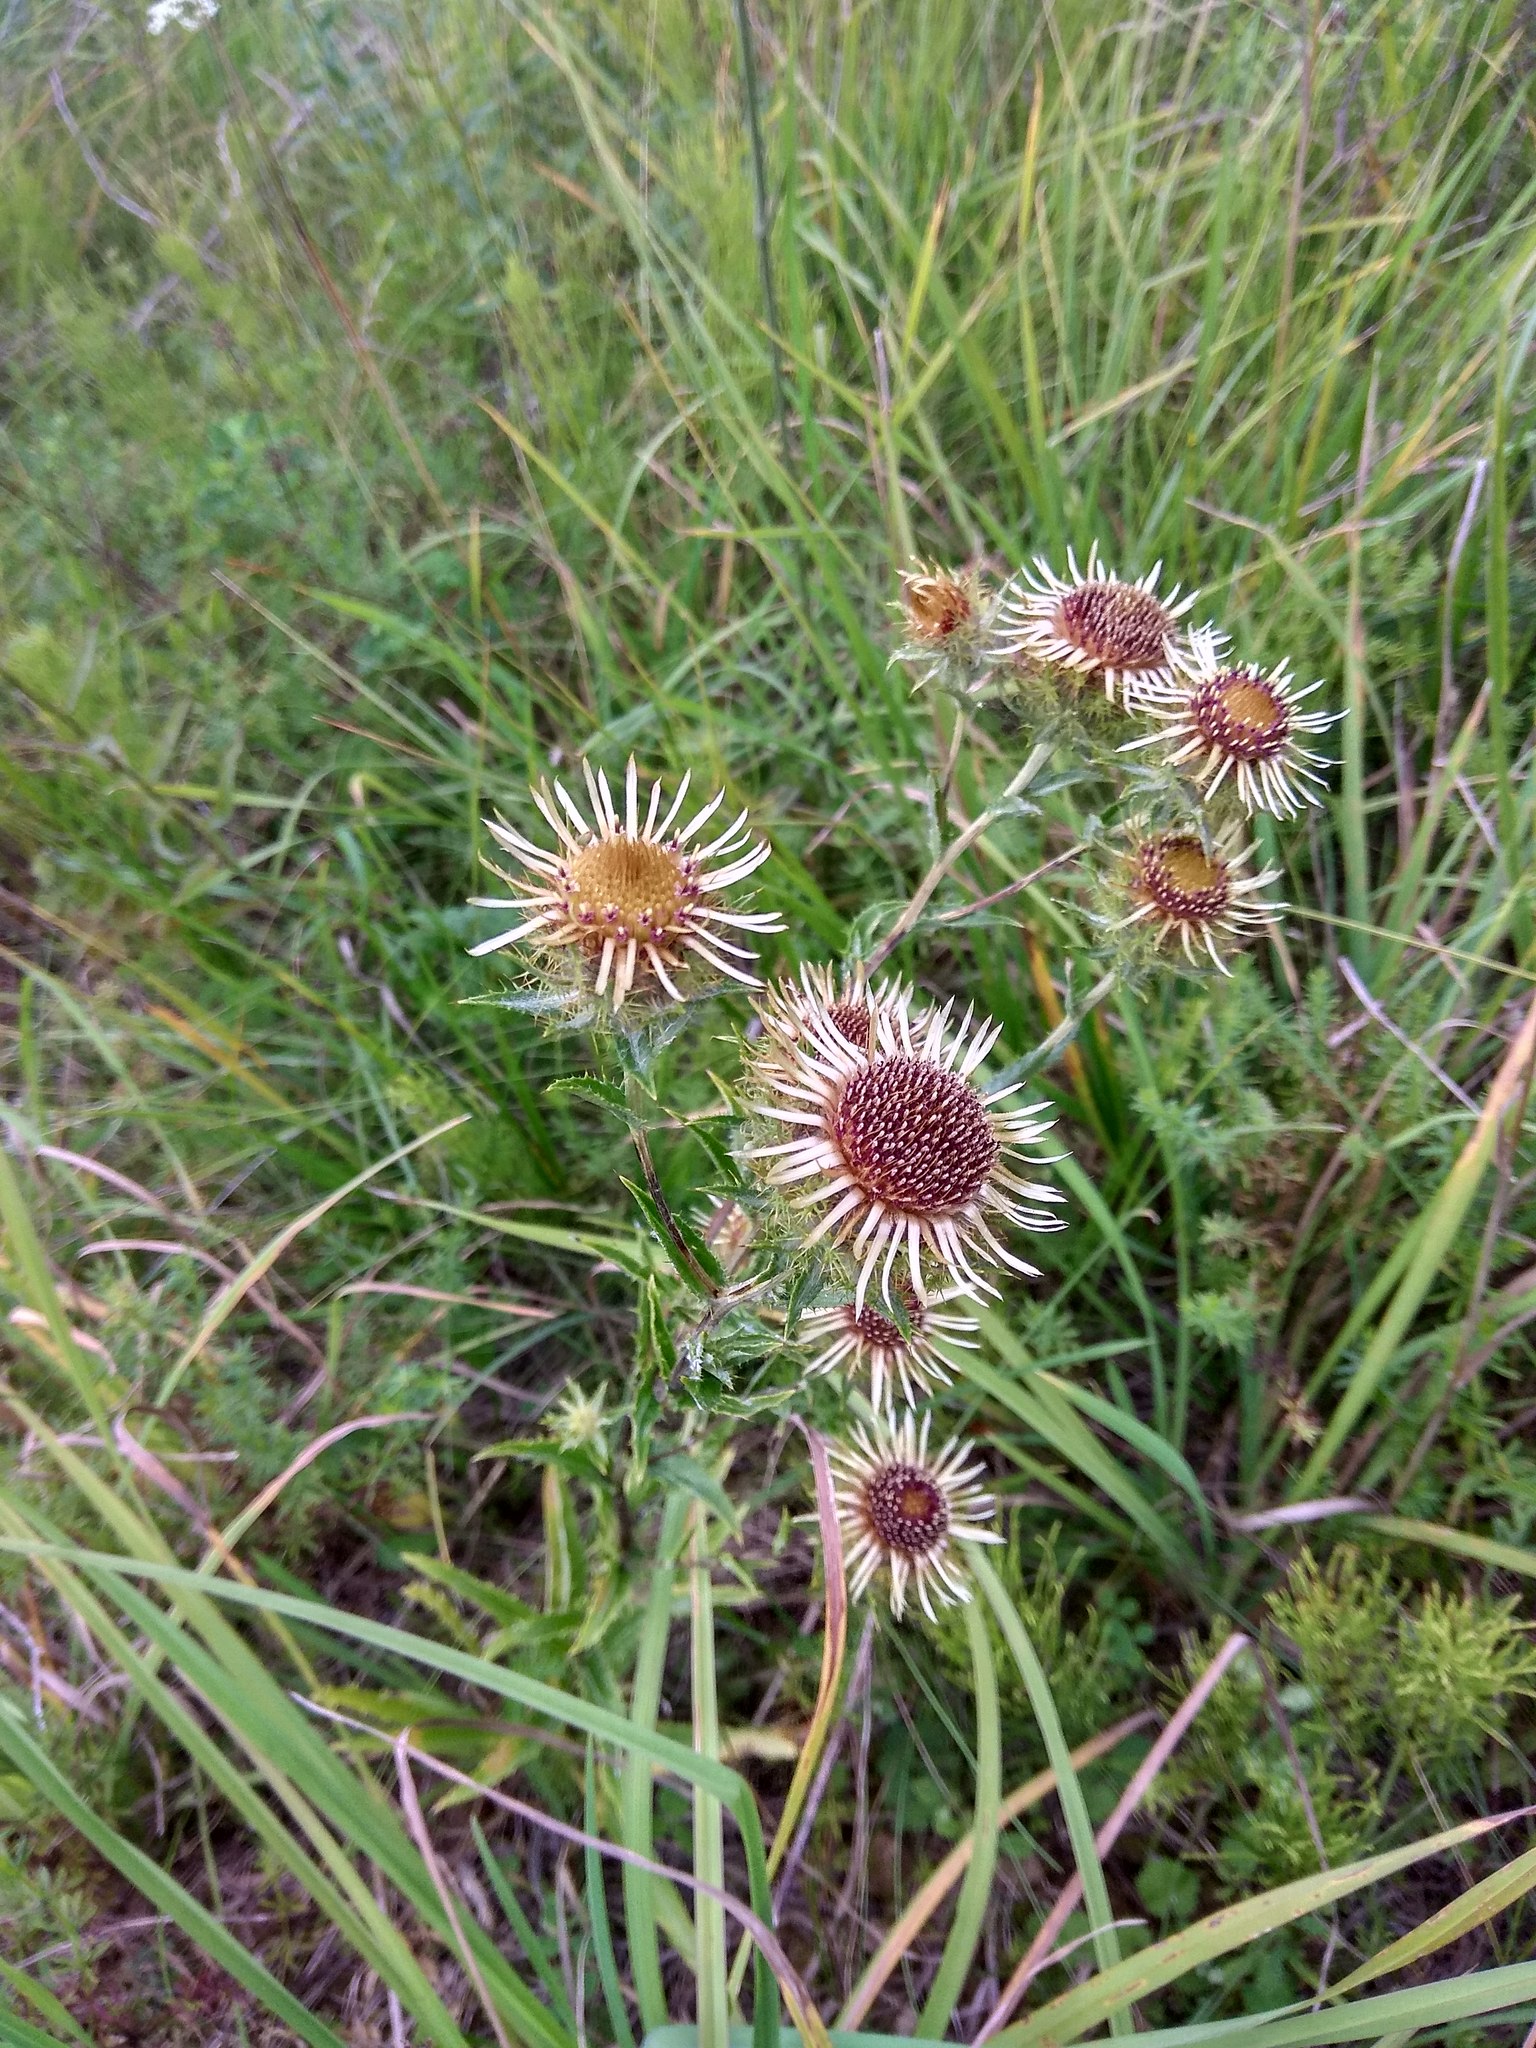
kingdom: Plantae
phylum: Tracheophyta
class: Magnoliopsida
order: Asterales
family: Asteraceae
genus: Carlina
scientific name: Carlina biebersteinii
